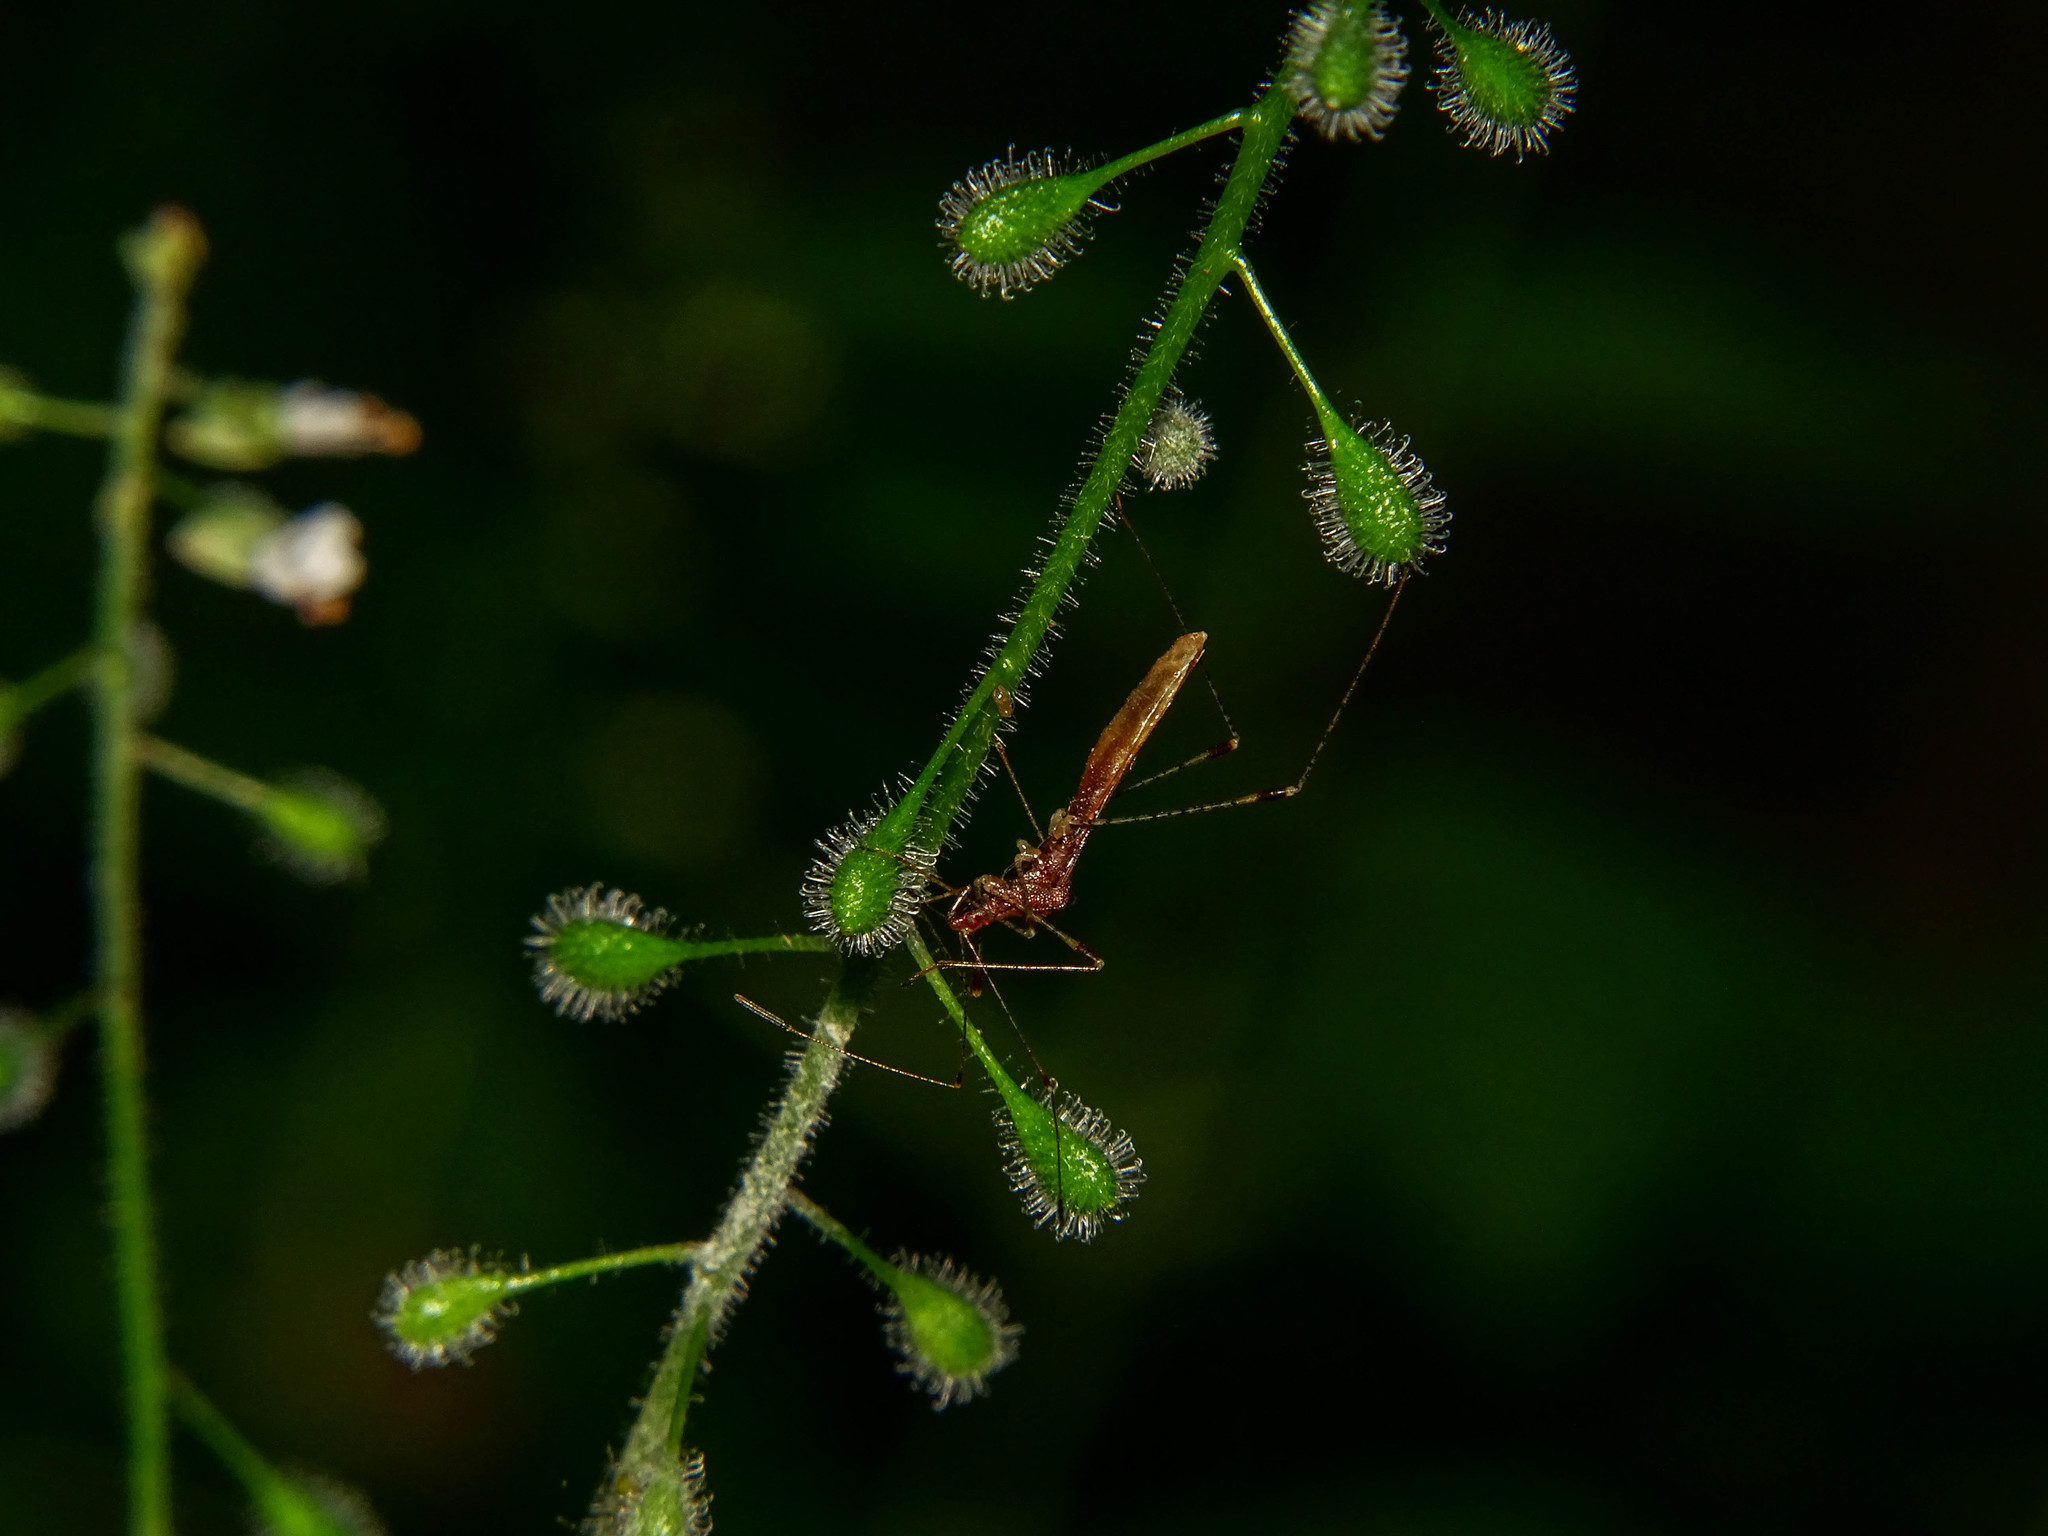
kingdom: Animalia
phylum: Arthropoda
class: Insecta
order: Hemiptera
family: Berytidae
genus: Metatropis
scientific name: Metatropis rufescens
